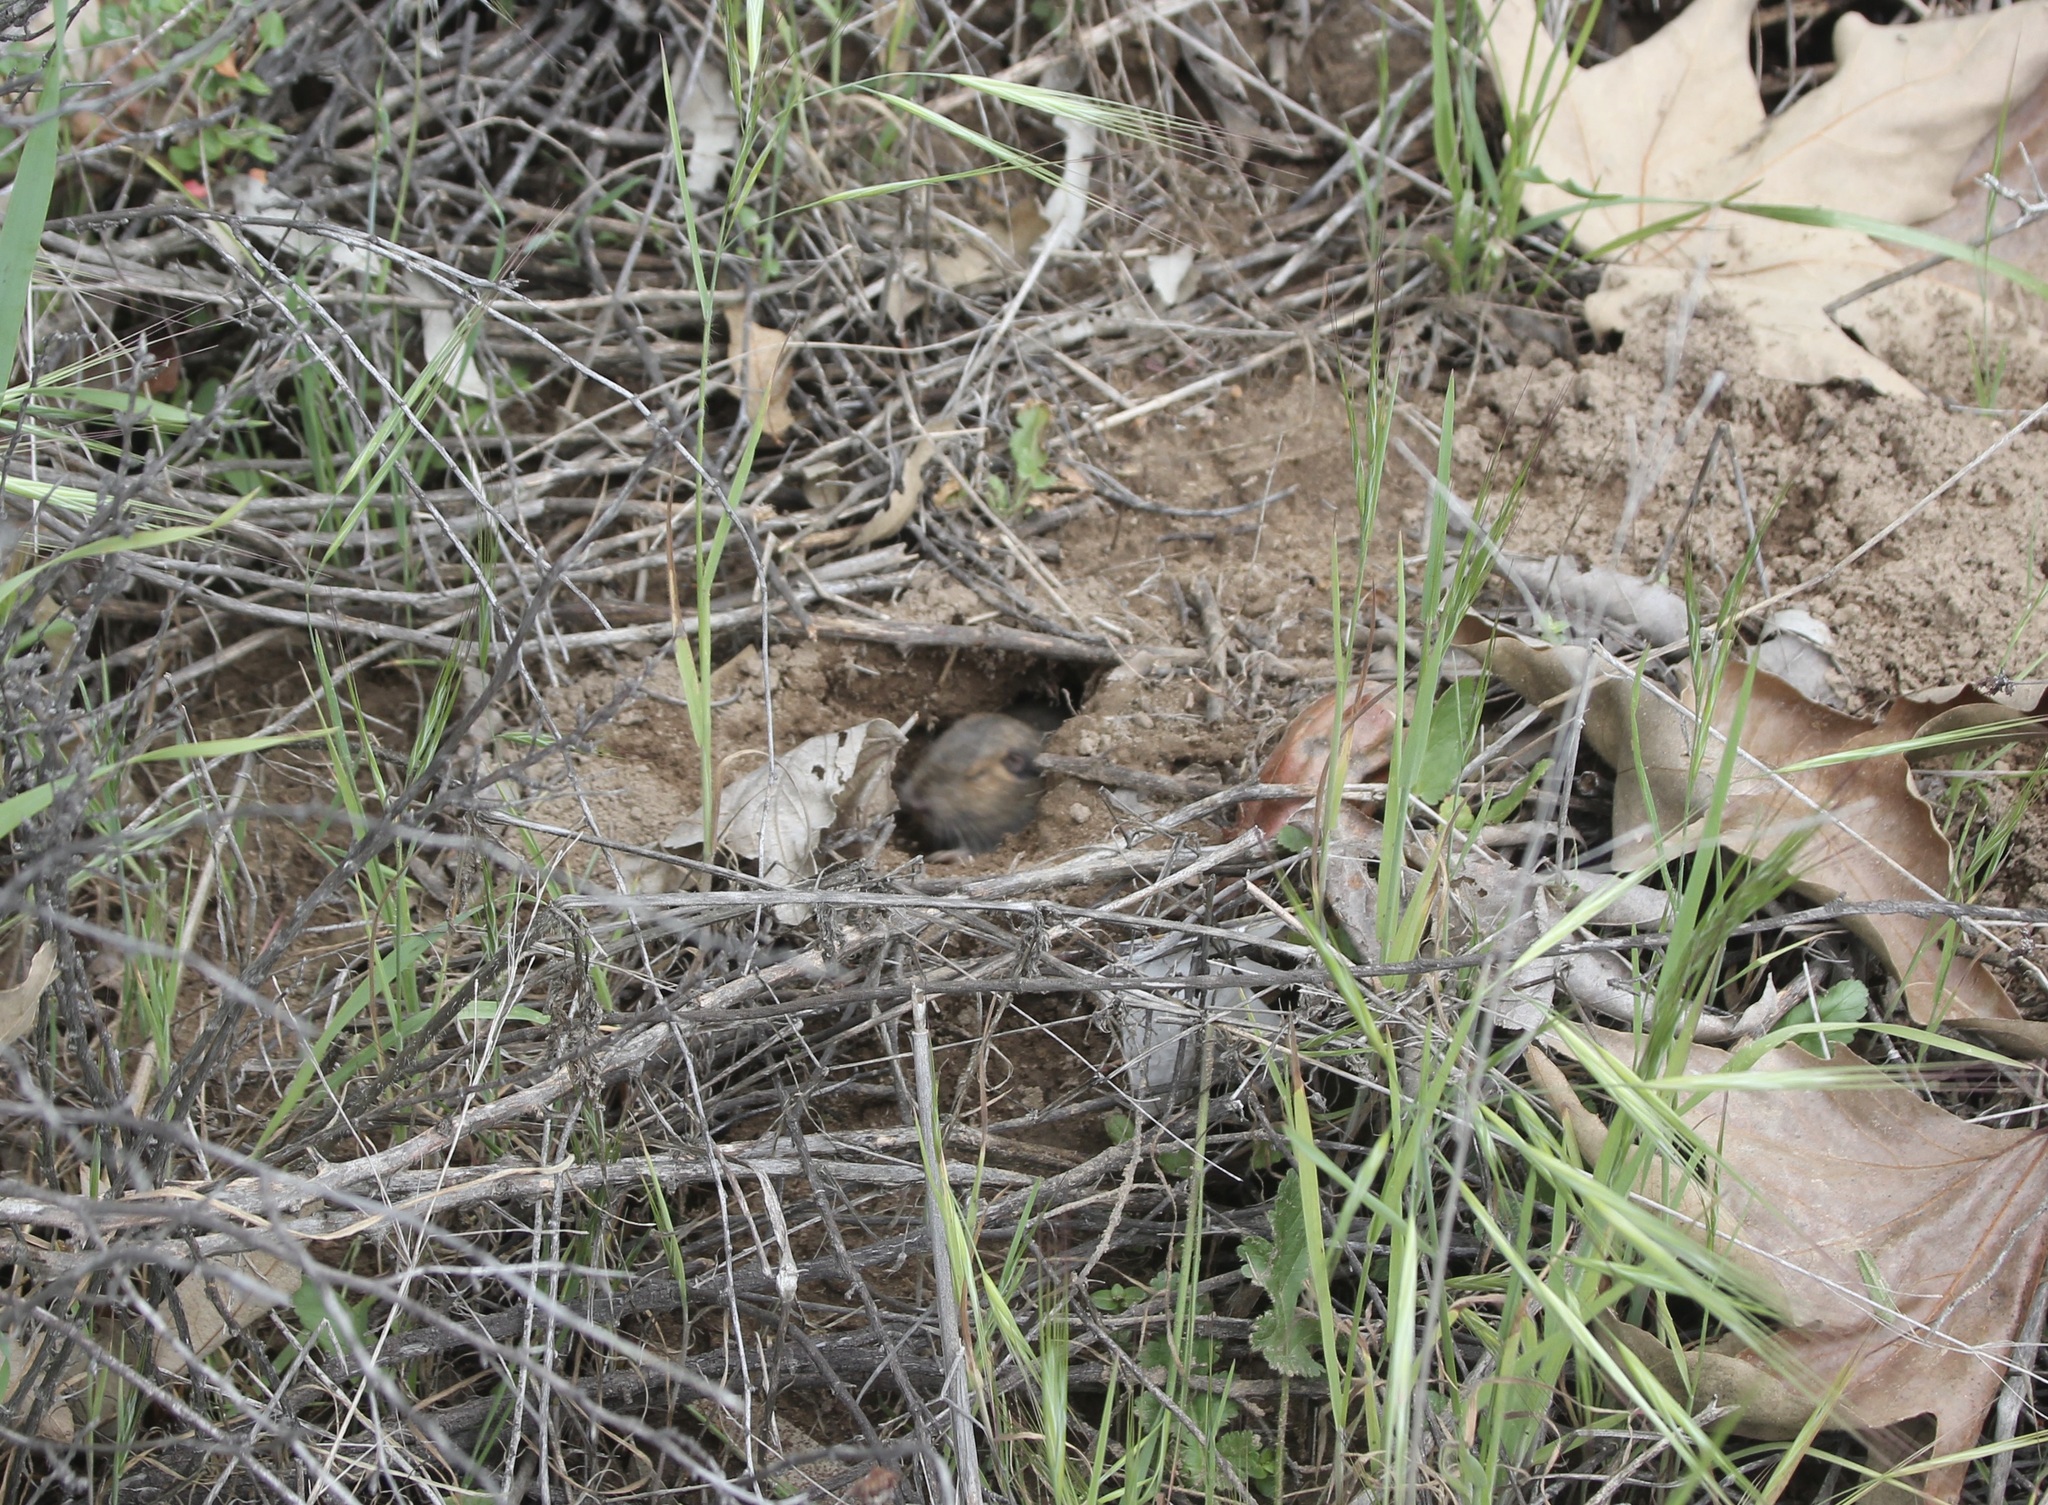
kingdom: Animalia
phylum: Chordata
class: Mammalia
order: Rodentia
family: Geomyidae
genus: Thomomys
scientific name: Thomomys bottae
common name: Botta's pocket gopher
